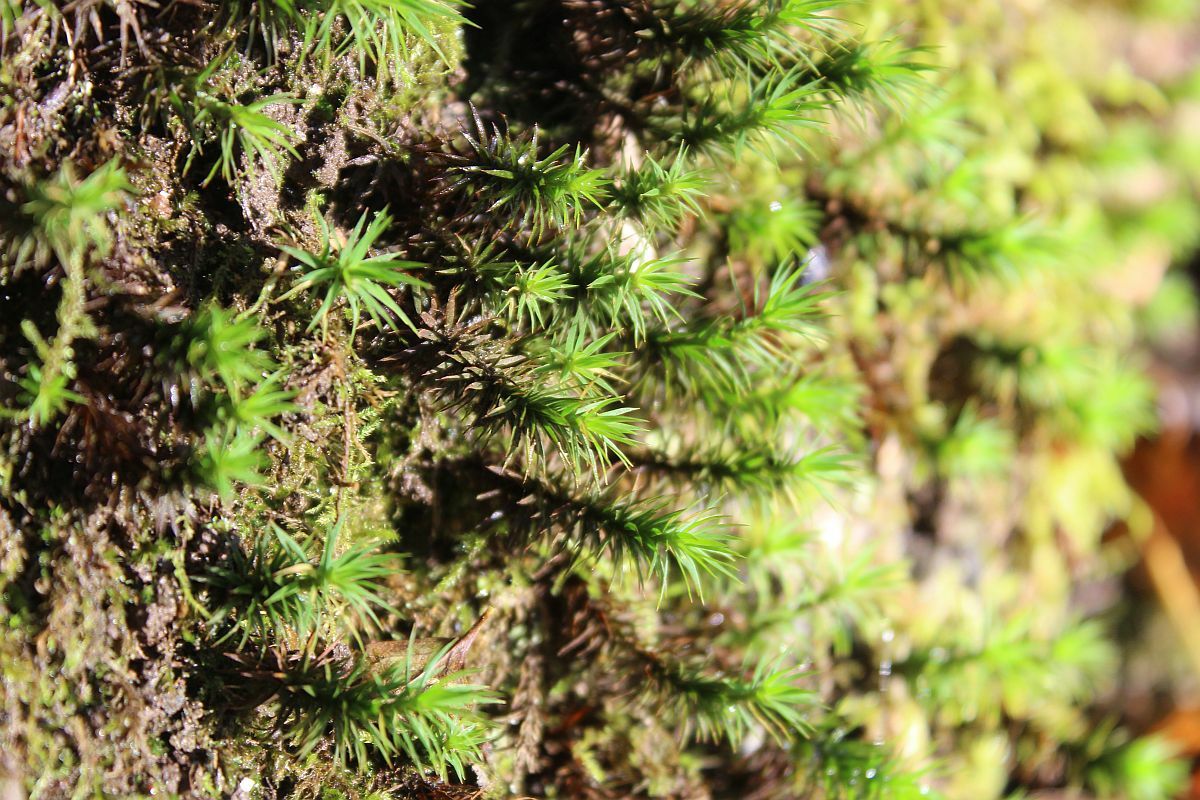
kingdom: Plantae
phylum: Bryophyta
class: Polytrichopsida
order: Polytrichales
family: Polytrichaceae
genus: Polytrichum
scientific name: Polytrichum formosum
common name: Bank haircap moss
